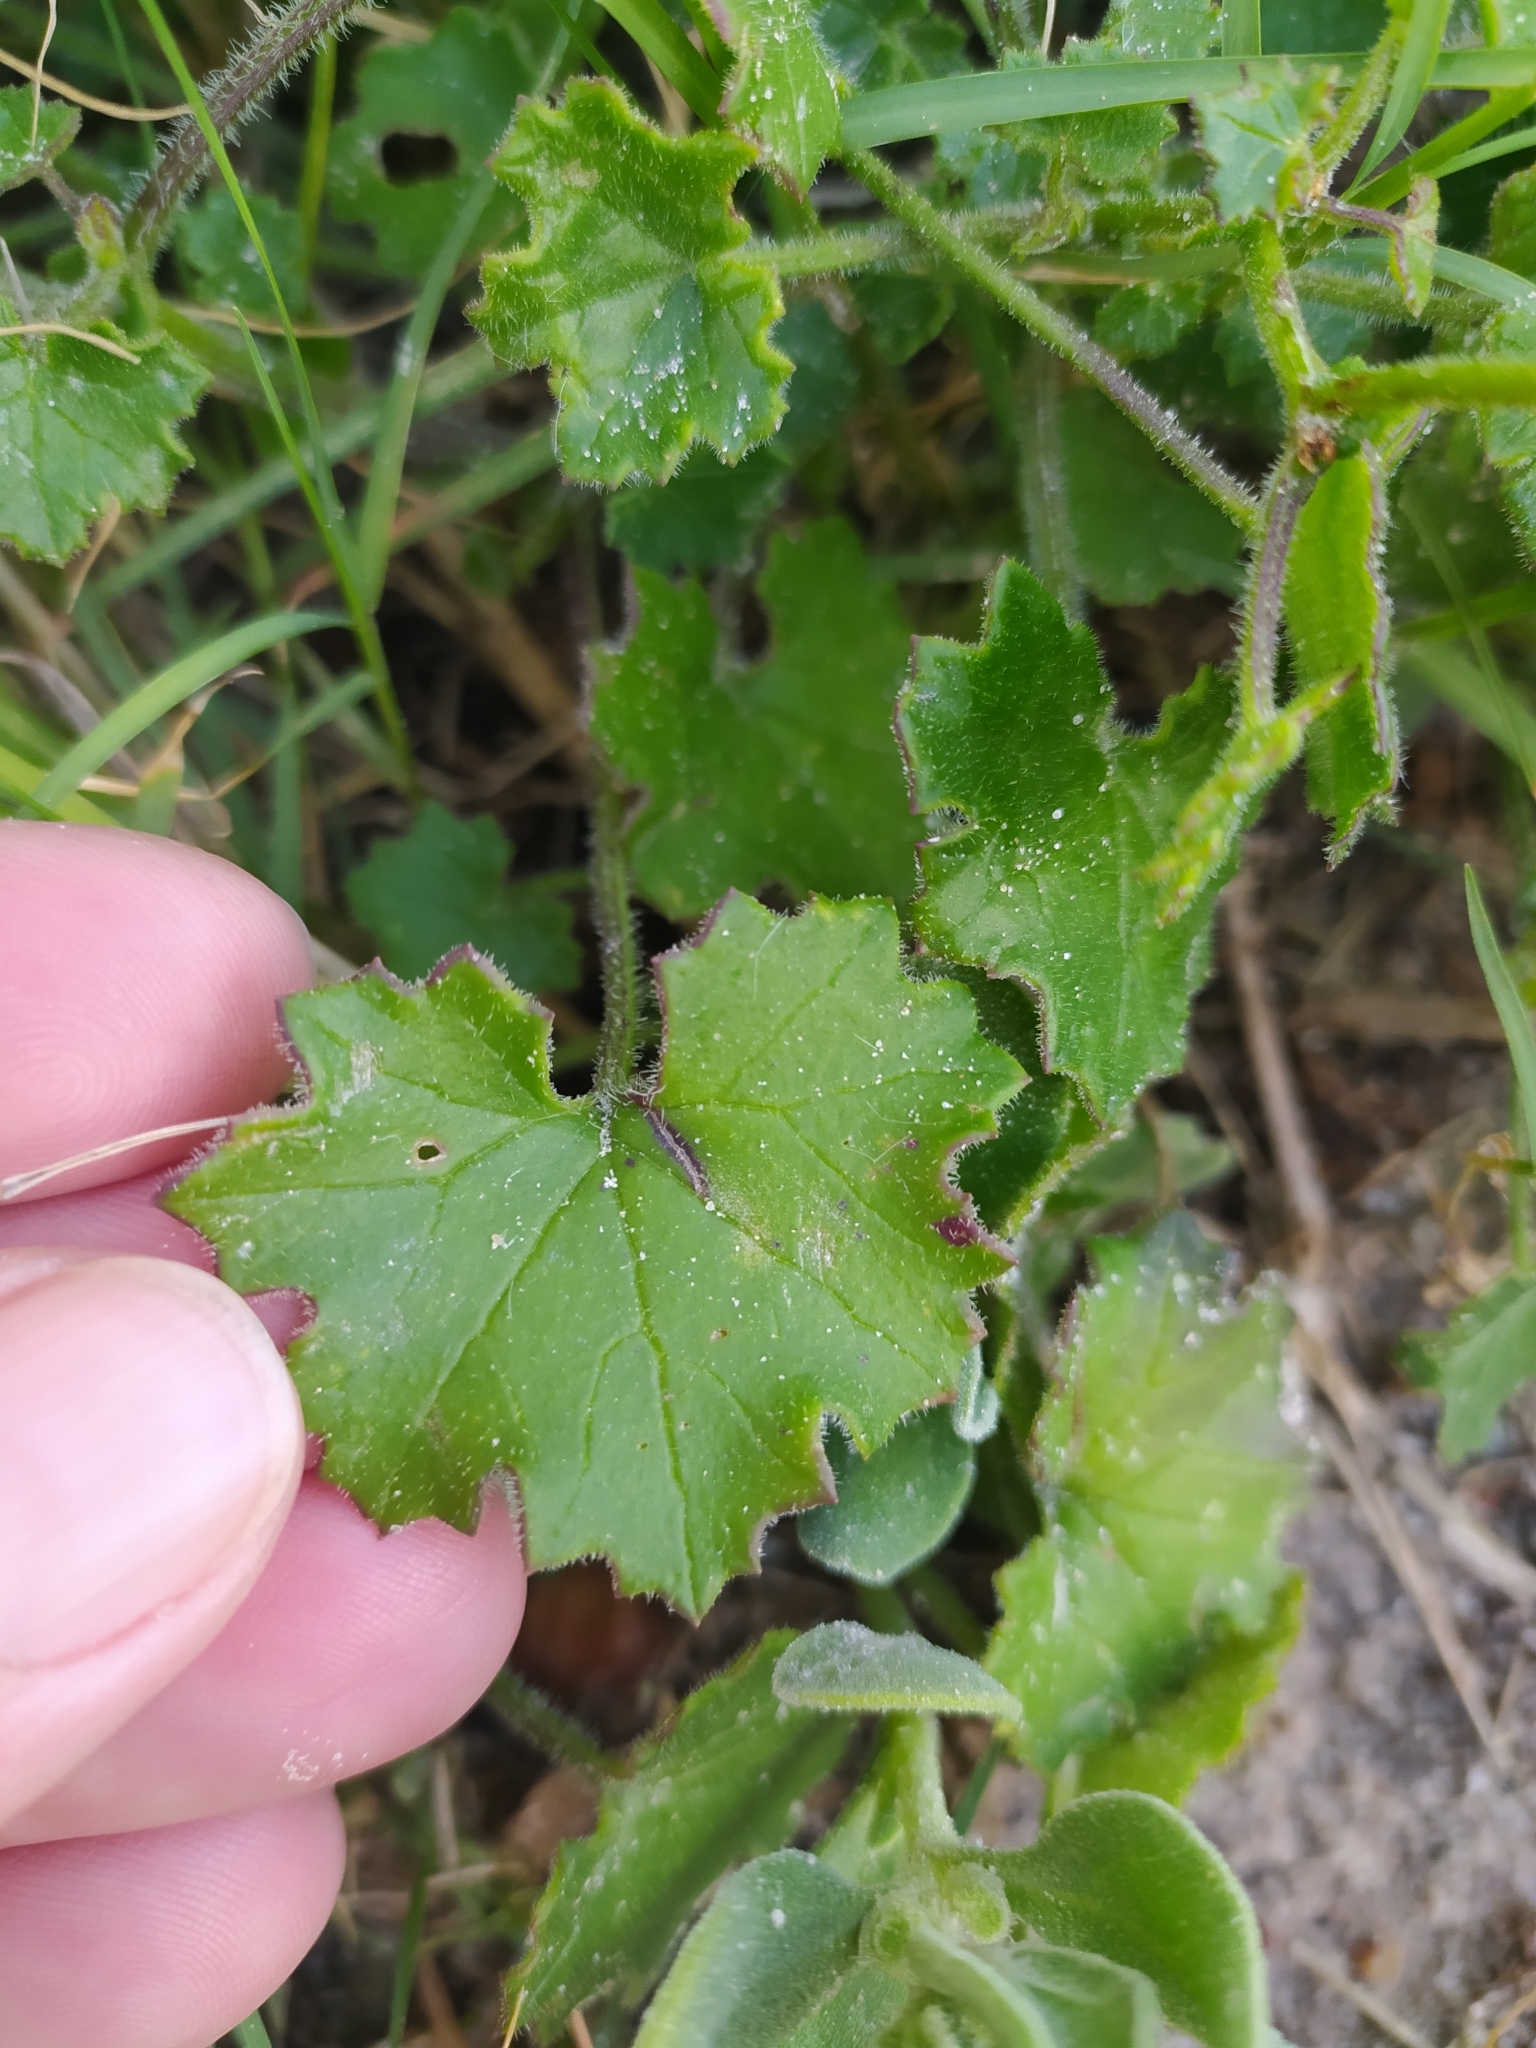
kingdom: Plantae
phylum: Tracheophyta
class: Magnoliopsida
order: Asterales
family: Asteraceae
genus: Cineraria
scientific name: Cineraria geifolia
